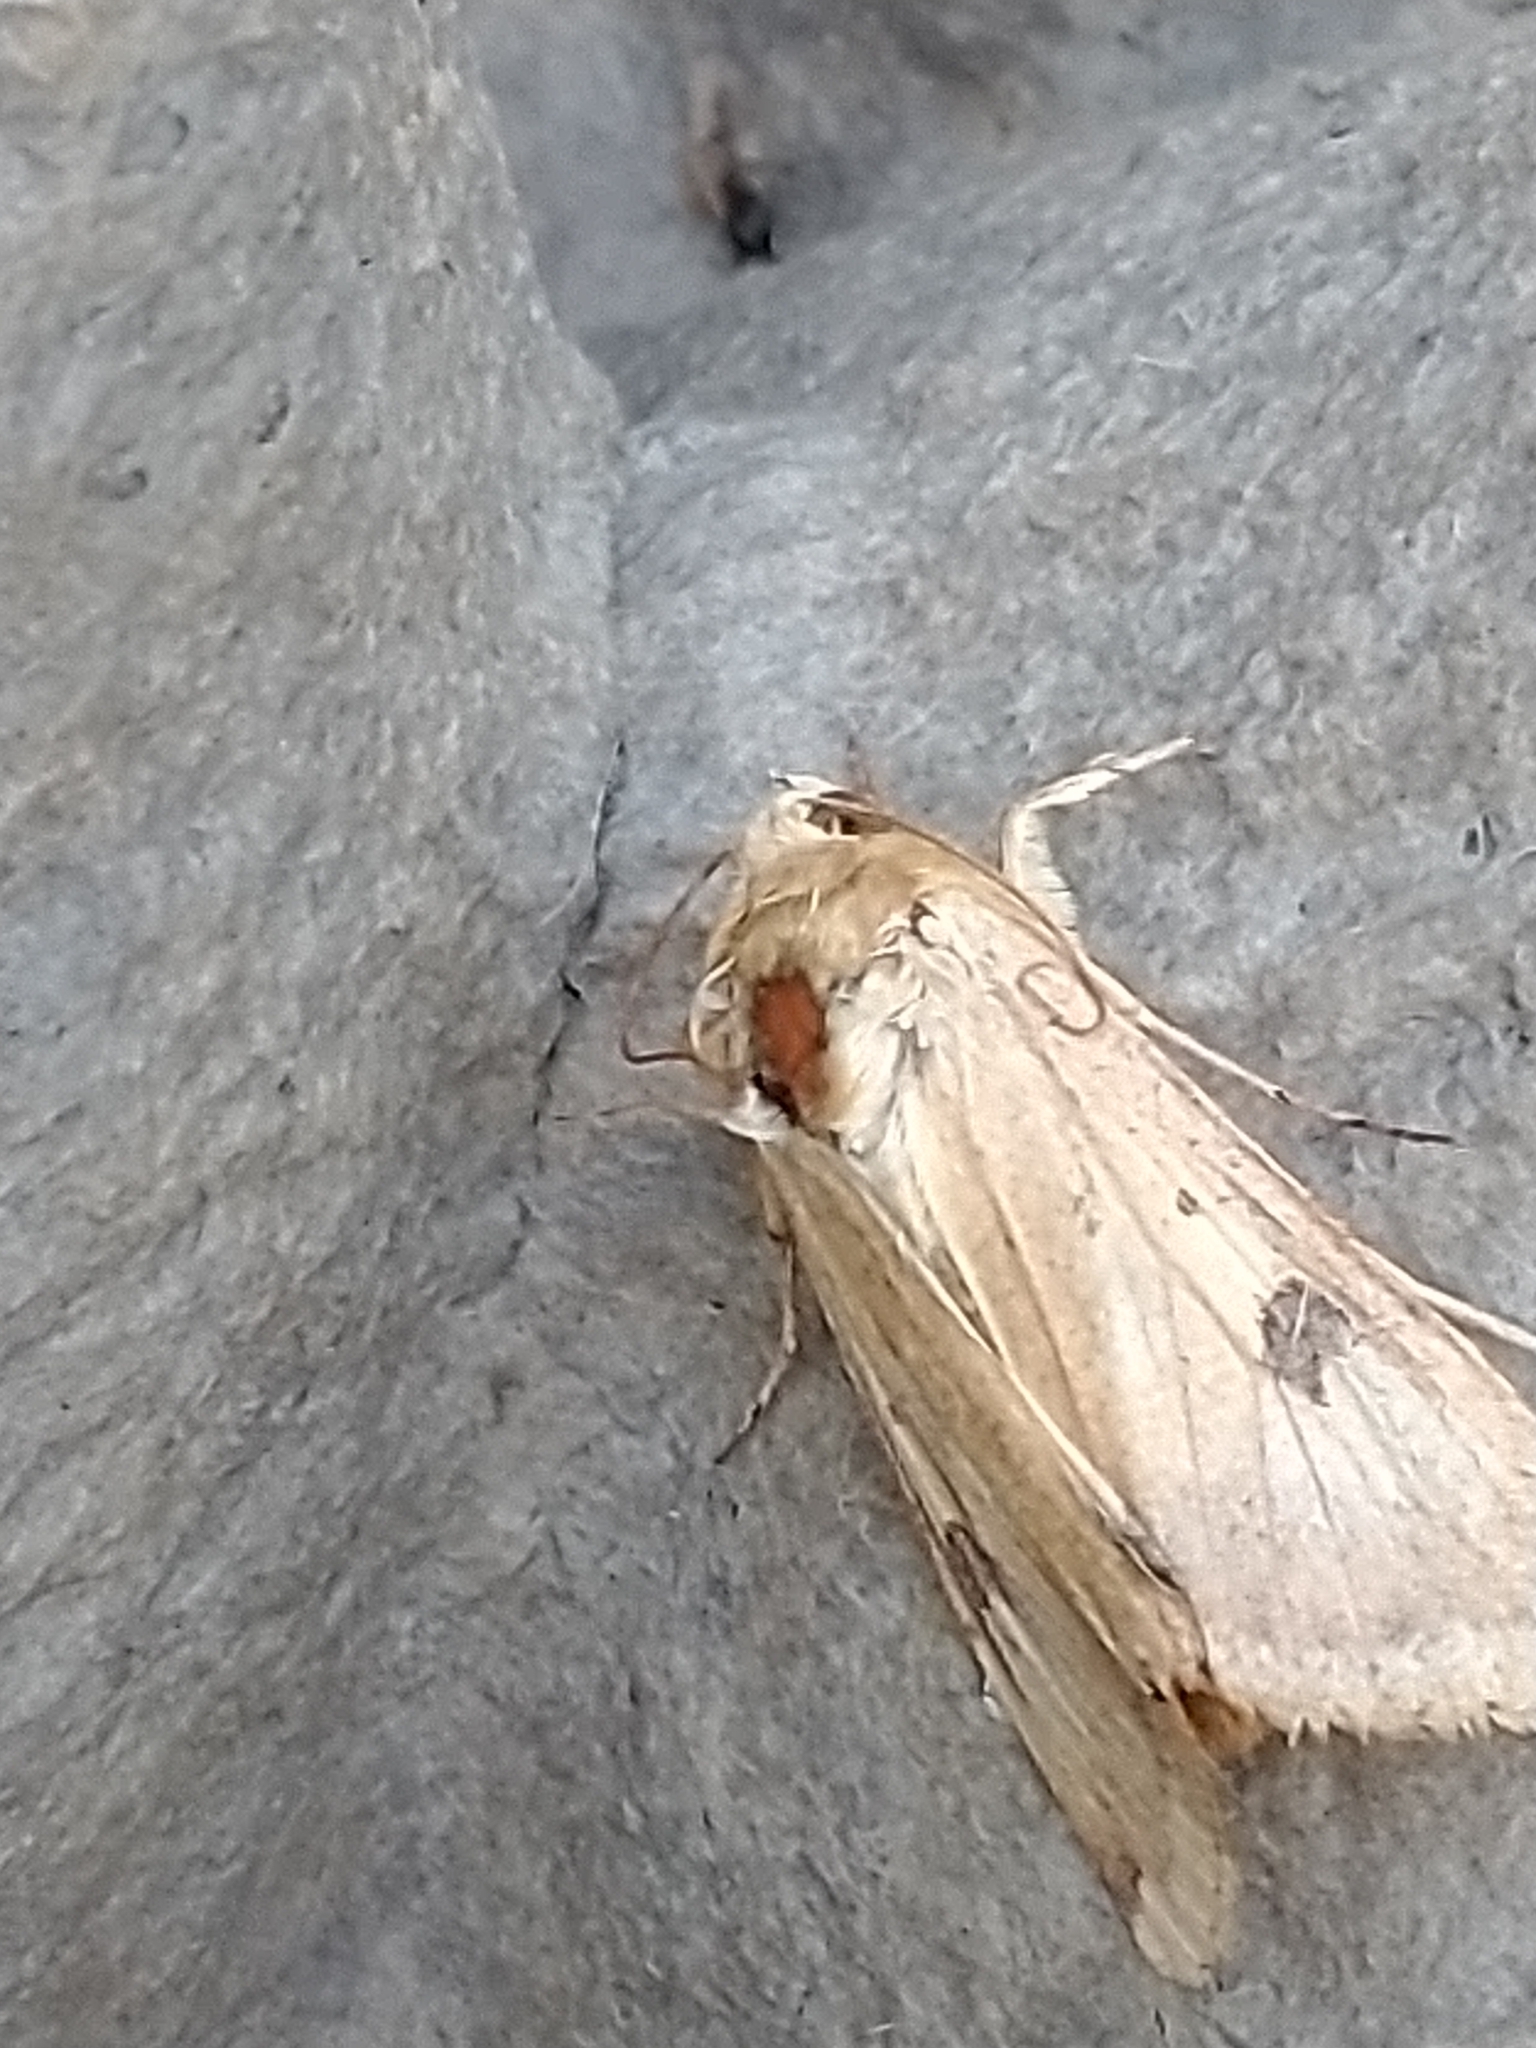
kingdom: Animalia
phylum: Arthropoda
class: Insecta
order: Lepidoptera
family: Noctuidae
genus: Heliothis
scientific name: Heliothis peltigera
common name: Bordered straw
